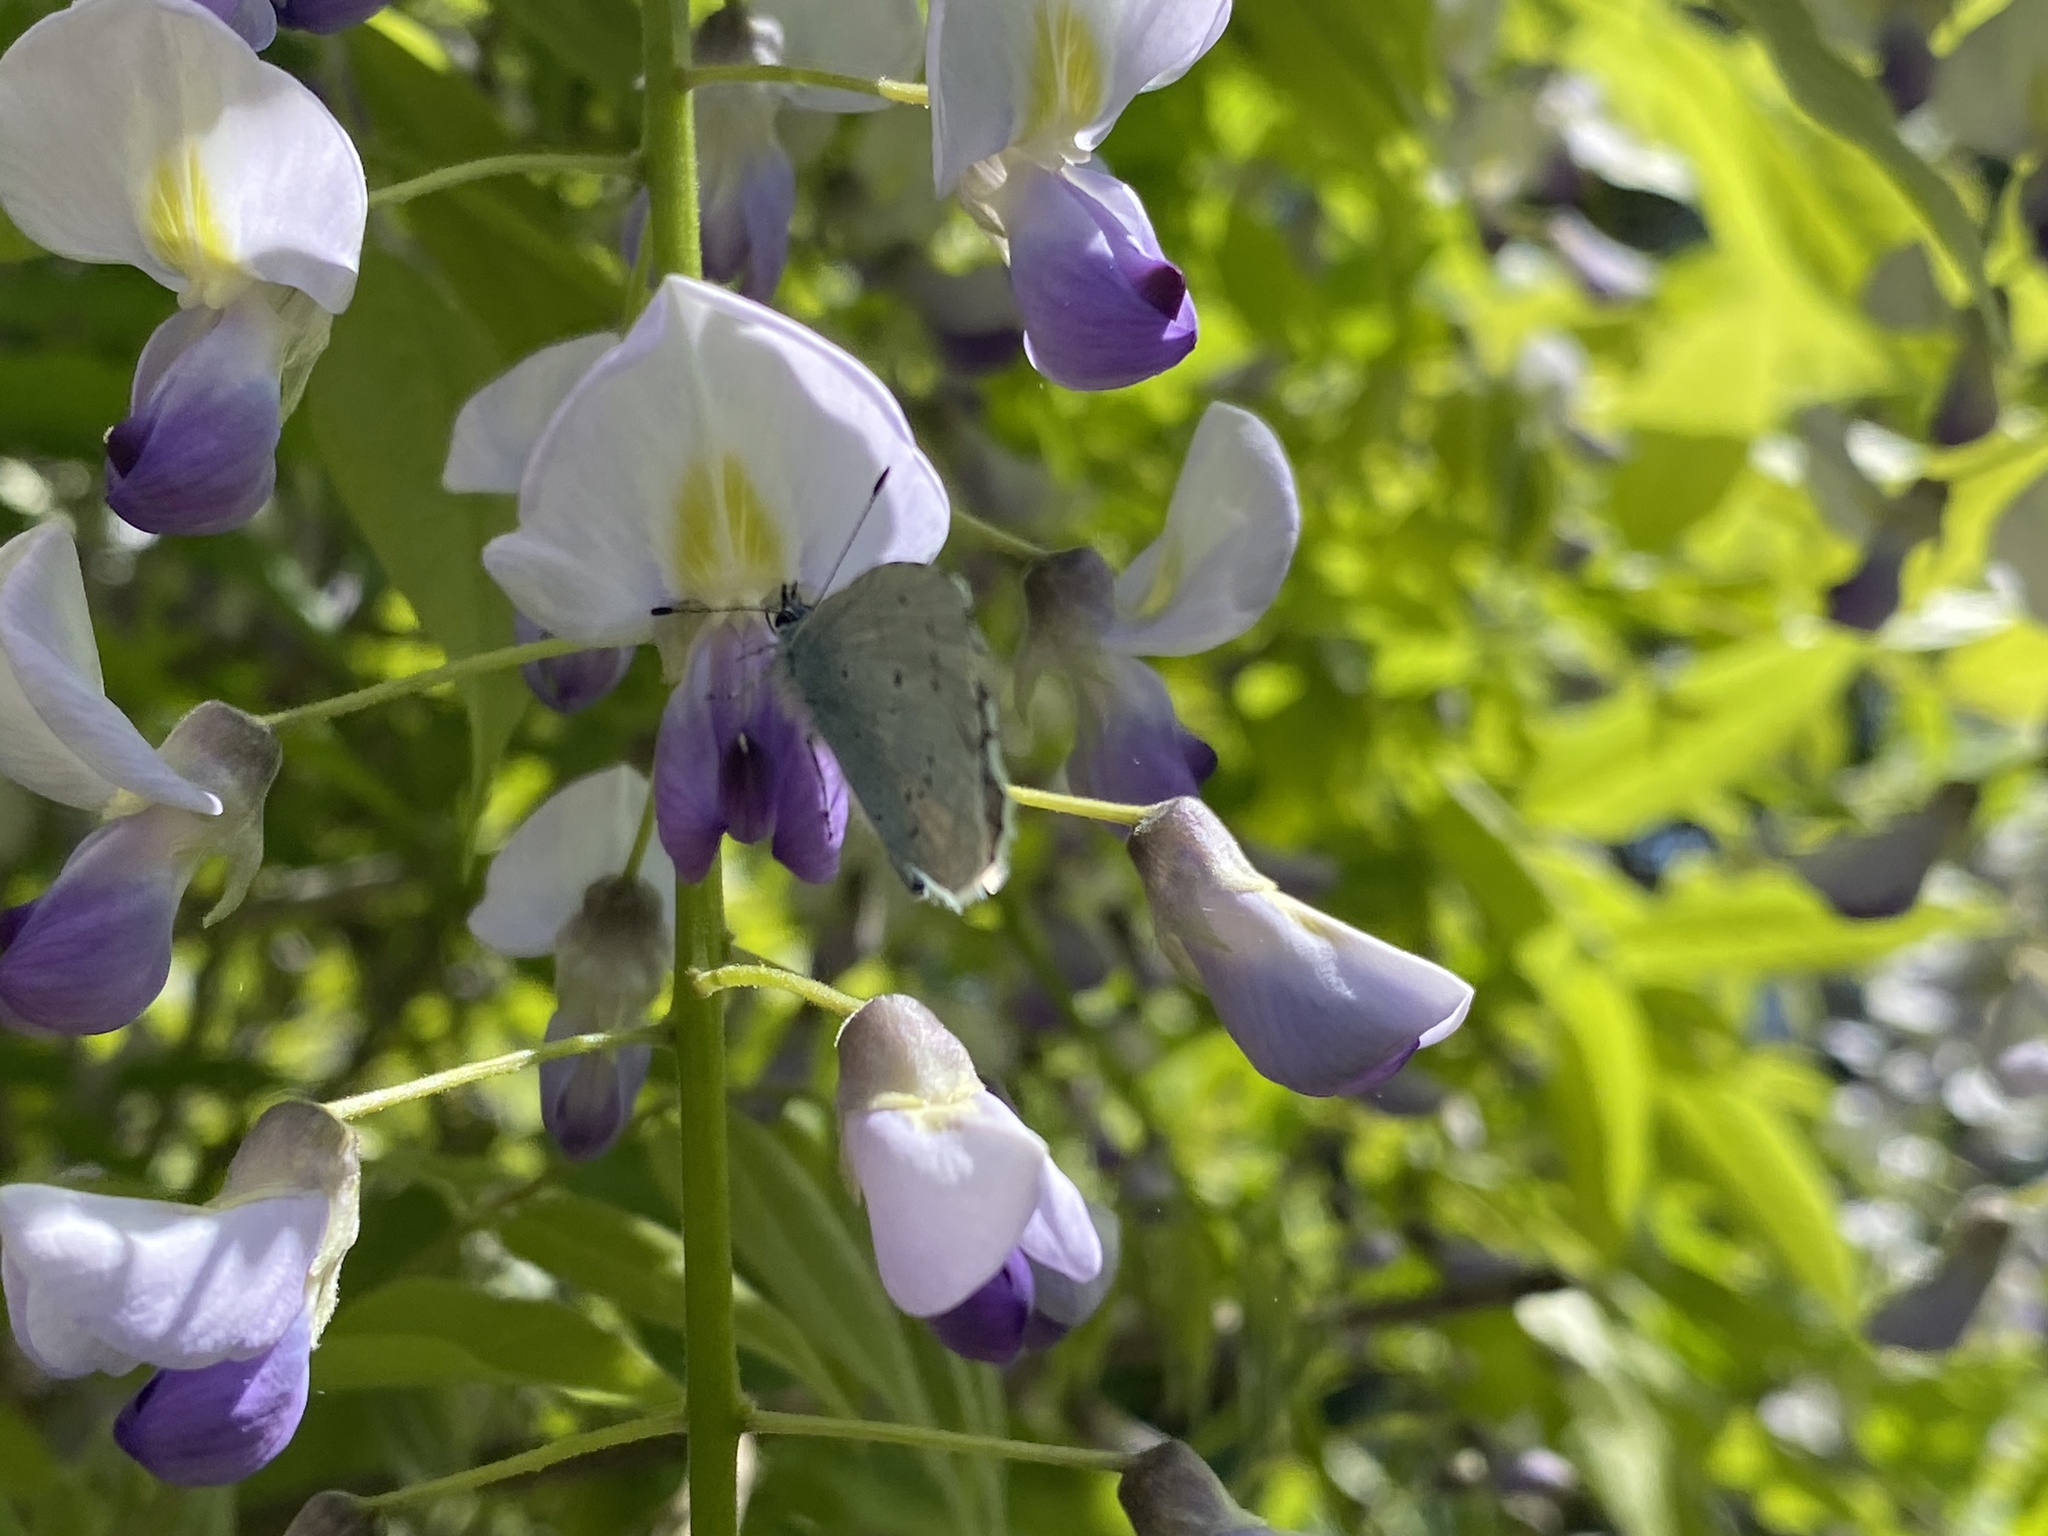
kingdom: Animalia
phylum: Arthropoda
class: Insecta
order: Lepidoptera
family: Lycaenidae
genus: Celastrina
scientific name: Celastrina argiolus
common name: Holly blue
